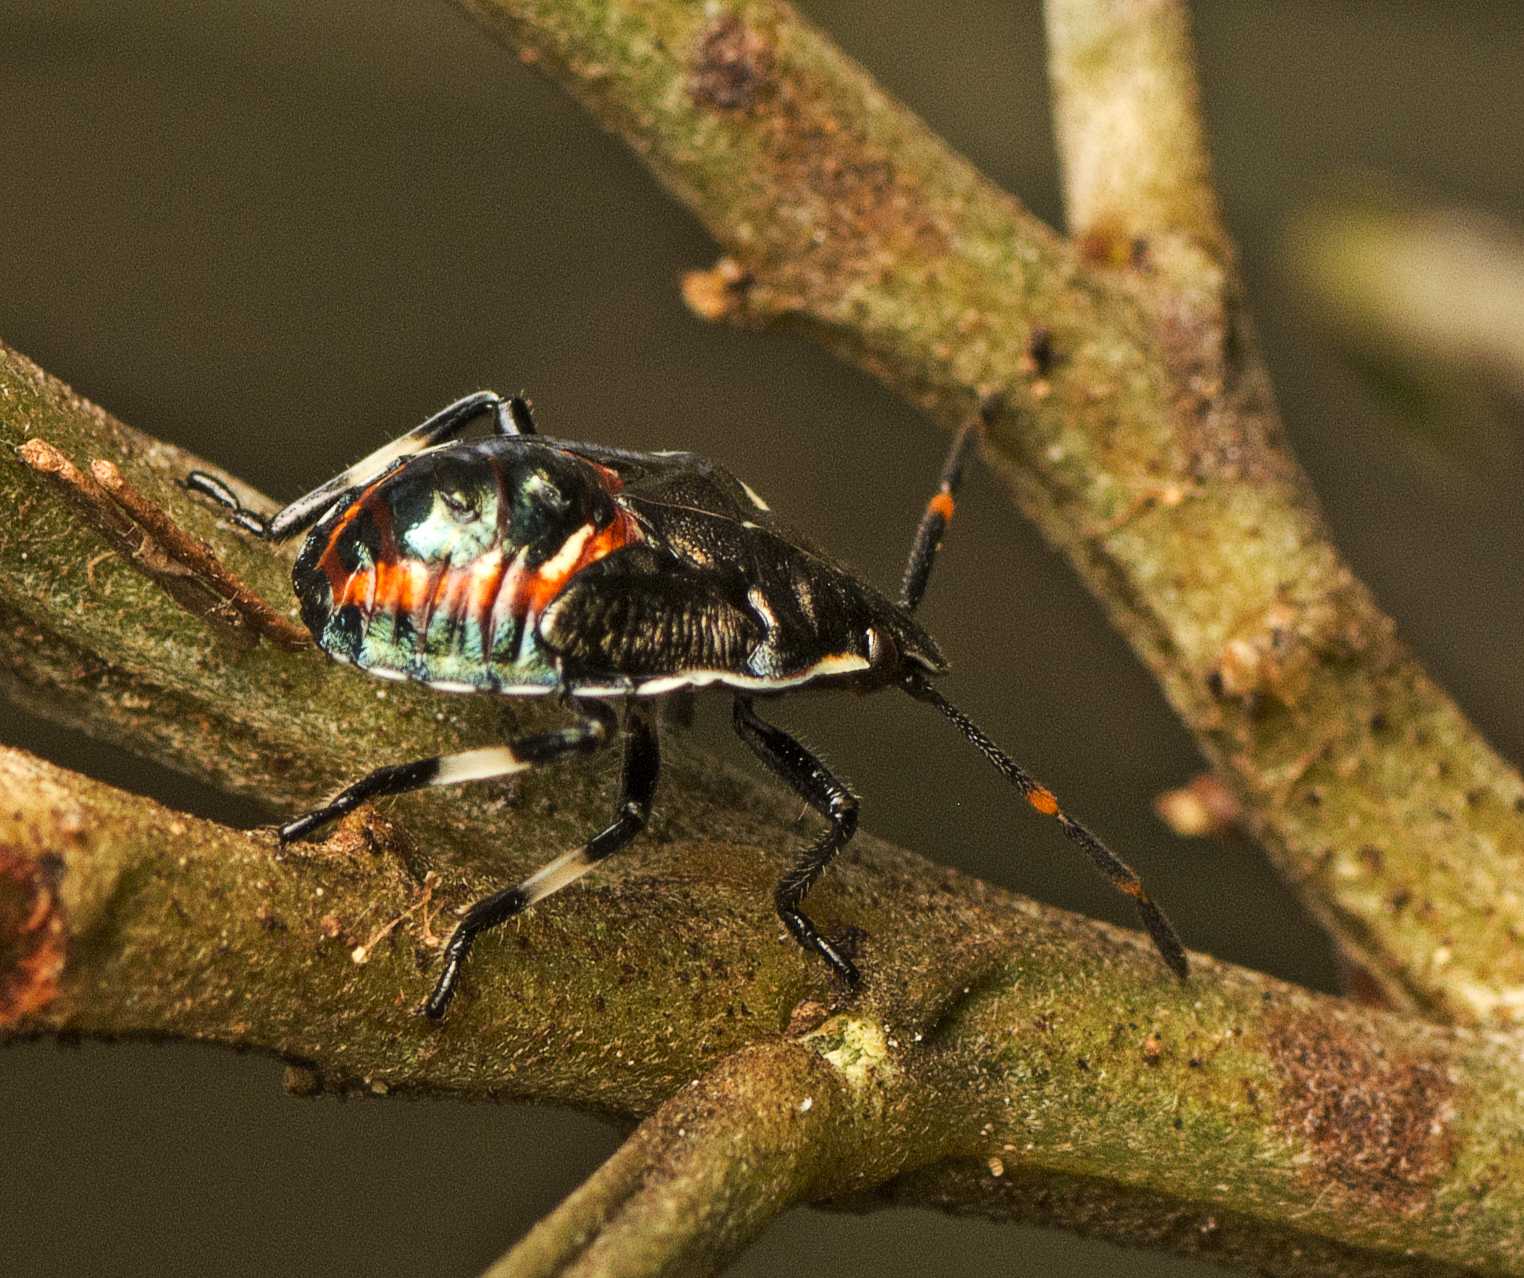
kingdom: Animalia
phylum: Arthropoda
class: Insecta
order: Hemiptera
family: Pentatomidae
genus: Oechalia
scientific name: Oechalia schellenbergii
